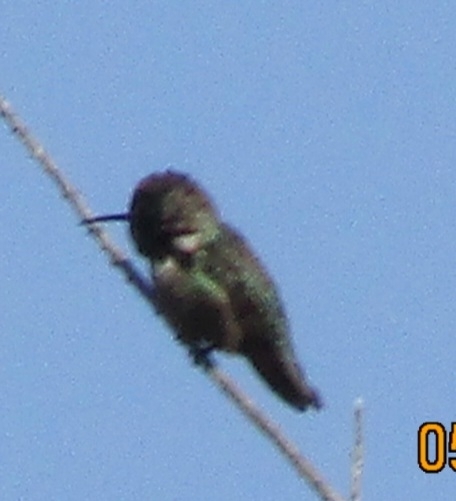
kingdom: Animalia
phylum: Chordata
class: Aves
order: Apodiformes
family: Trochilidae
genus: Calypte
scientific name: Calypte anna
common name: Anna's hummingbird
